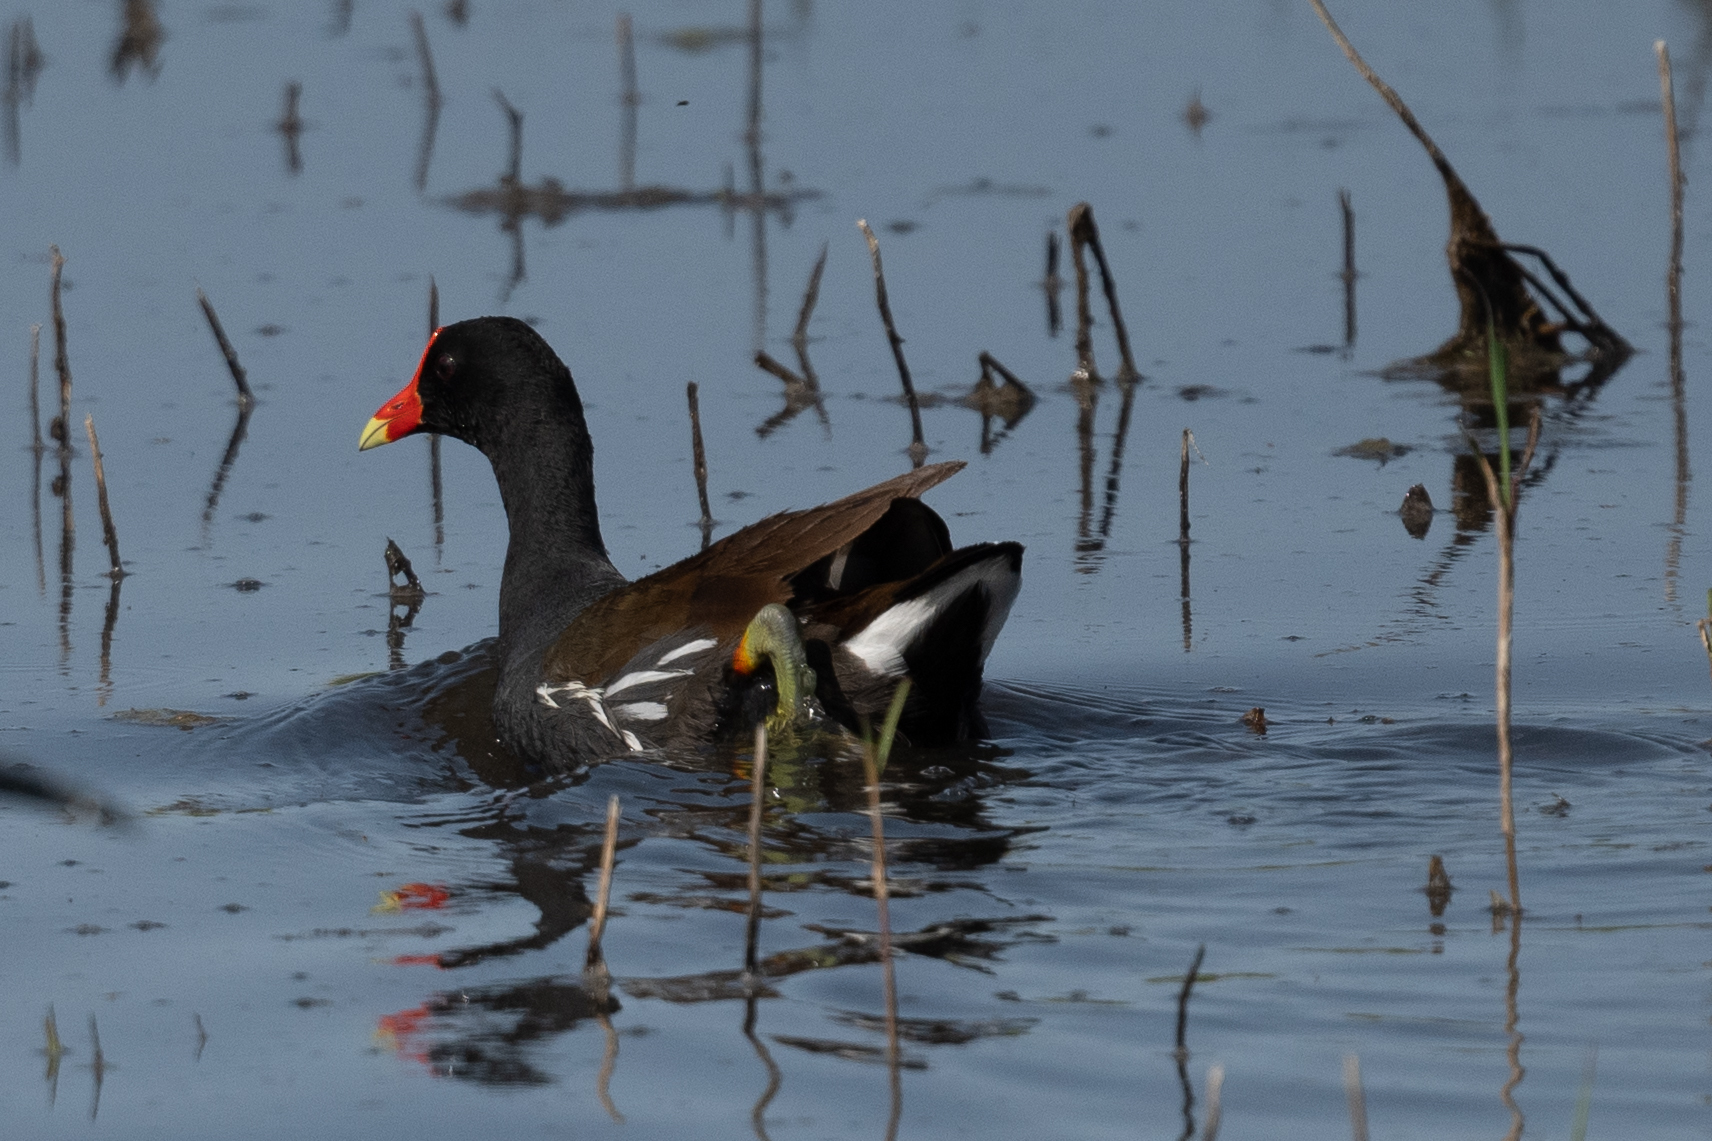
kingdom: Animalia
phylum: Chordata
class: Aves
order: Gruiformes
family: Rallidae
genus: Gallinula
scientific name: Gallinula chloropus
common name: Common moorhen
